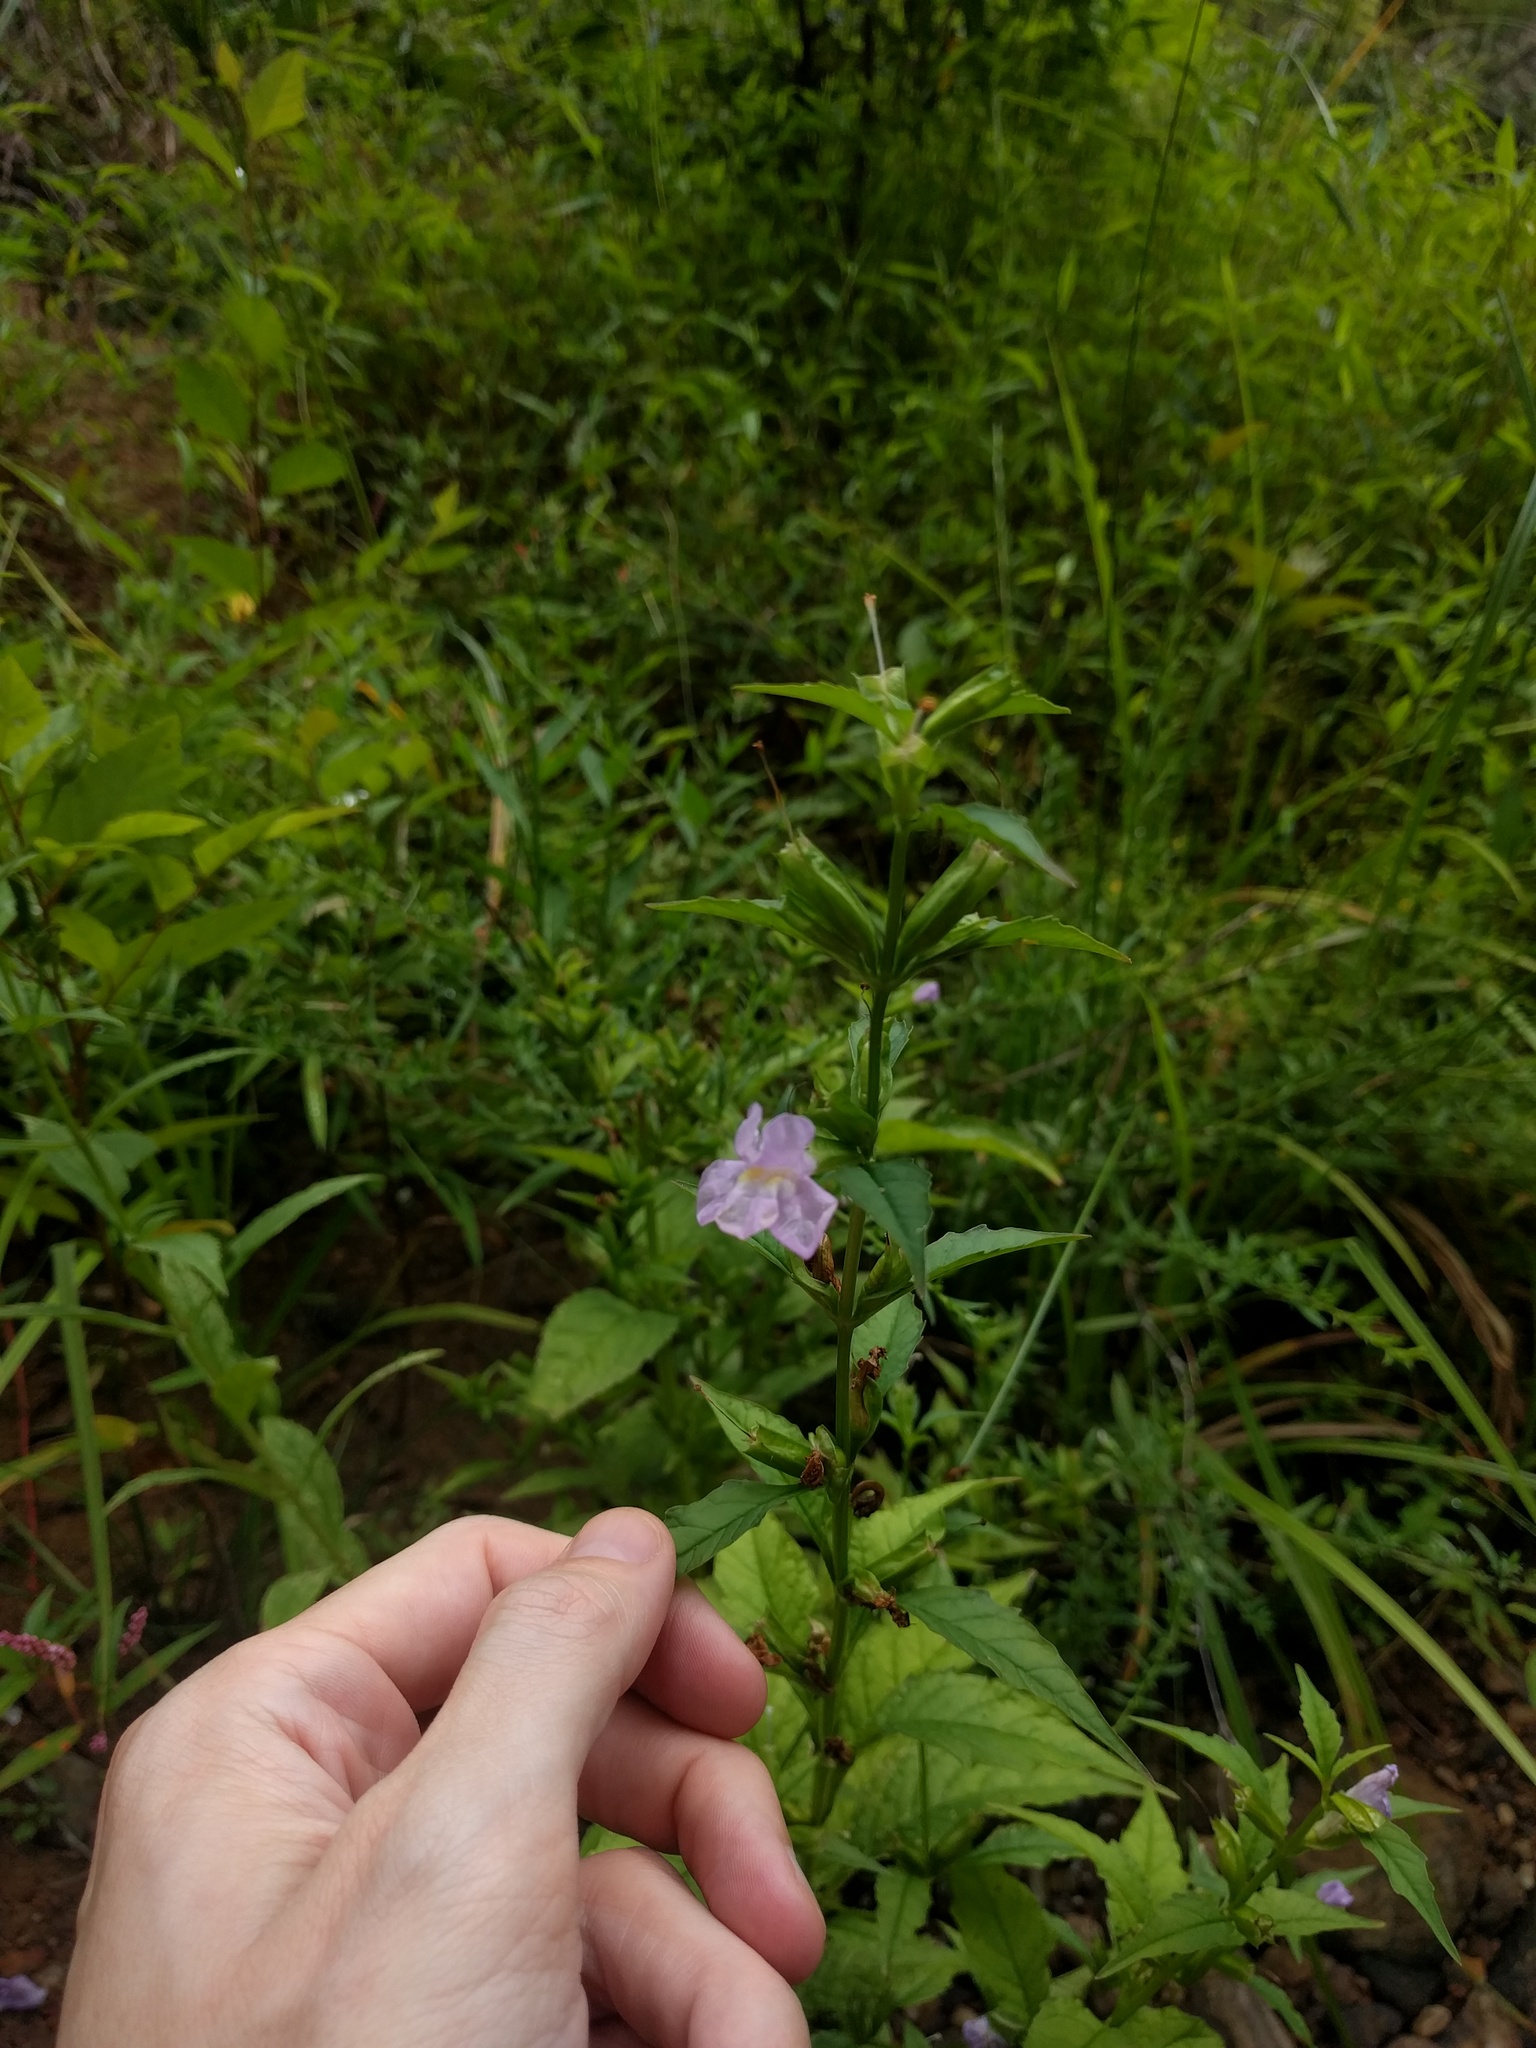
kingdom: Plantae
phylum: Tracheophyta
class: Magnoliopsida
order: Lamiales
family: Phrymaceae
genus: Mimulus
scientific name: Mimulus alatus
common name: Sharp-wing monkey-flower
